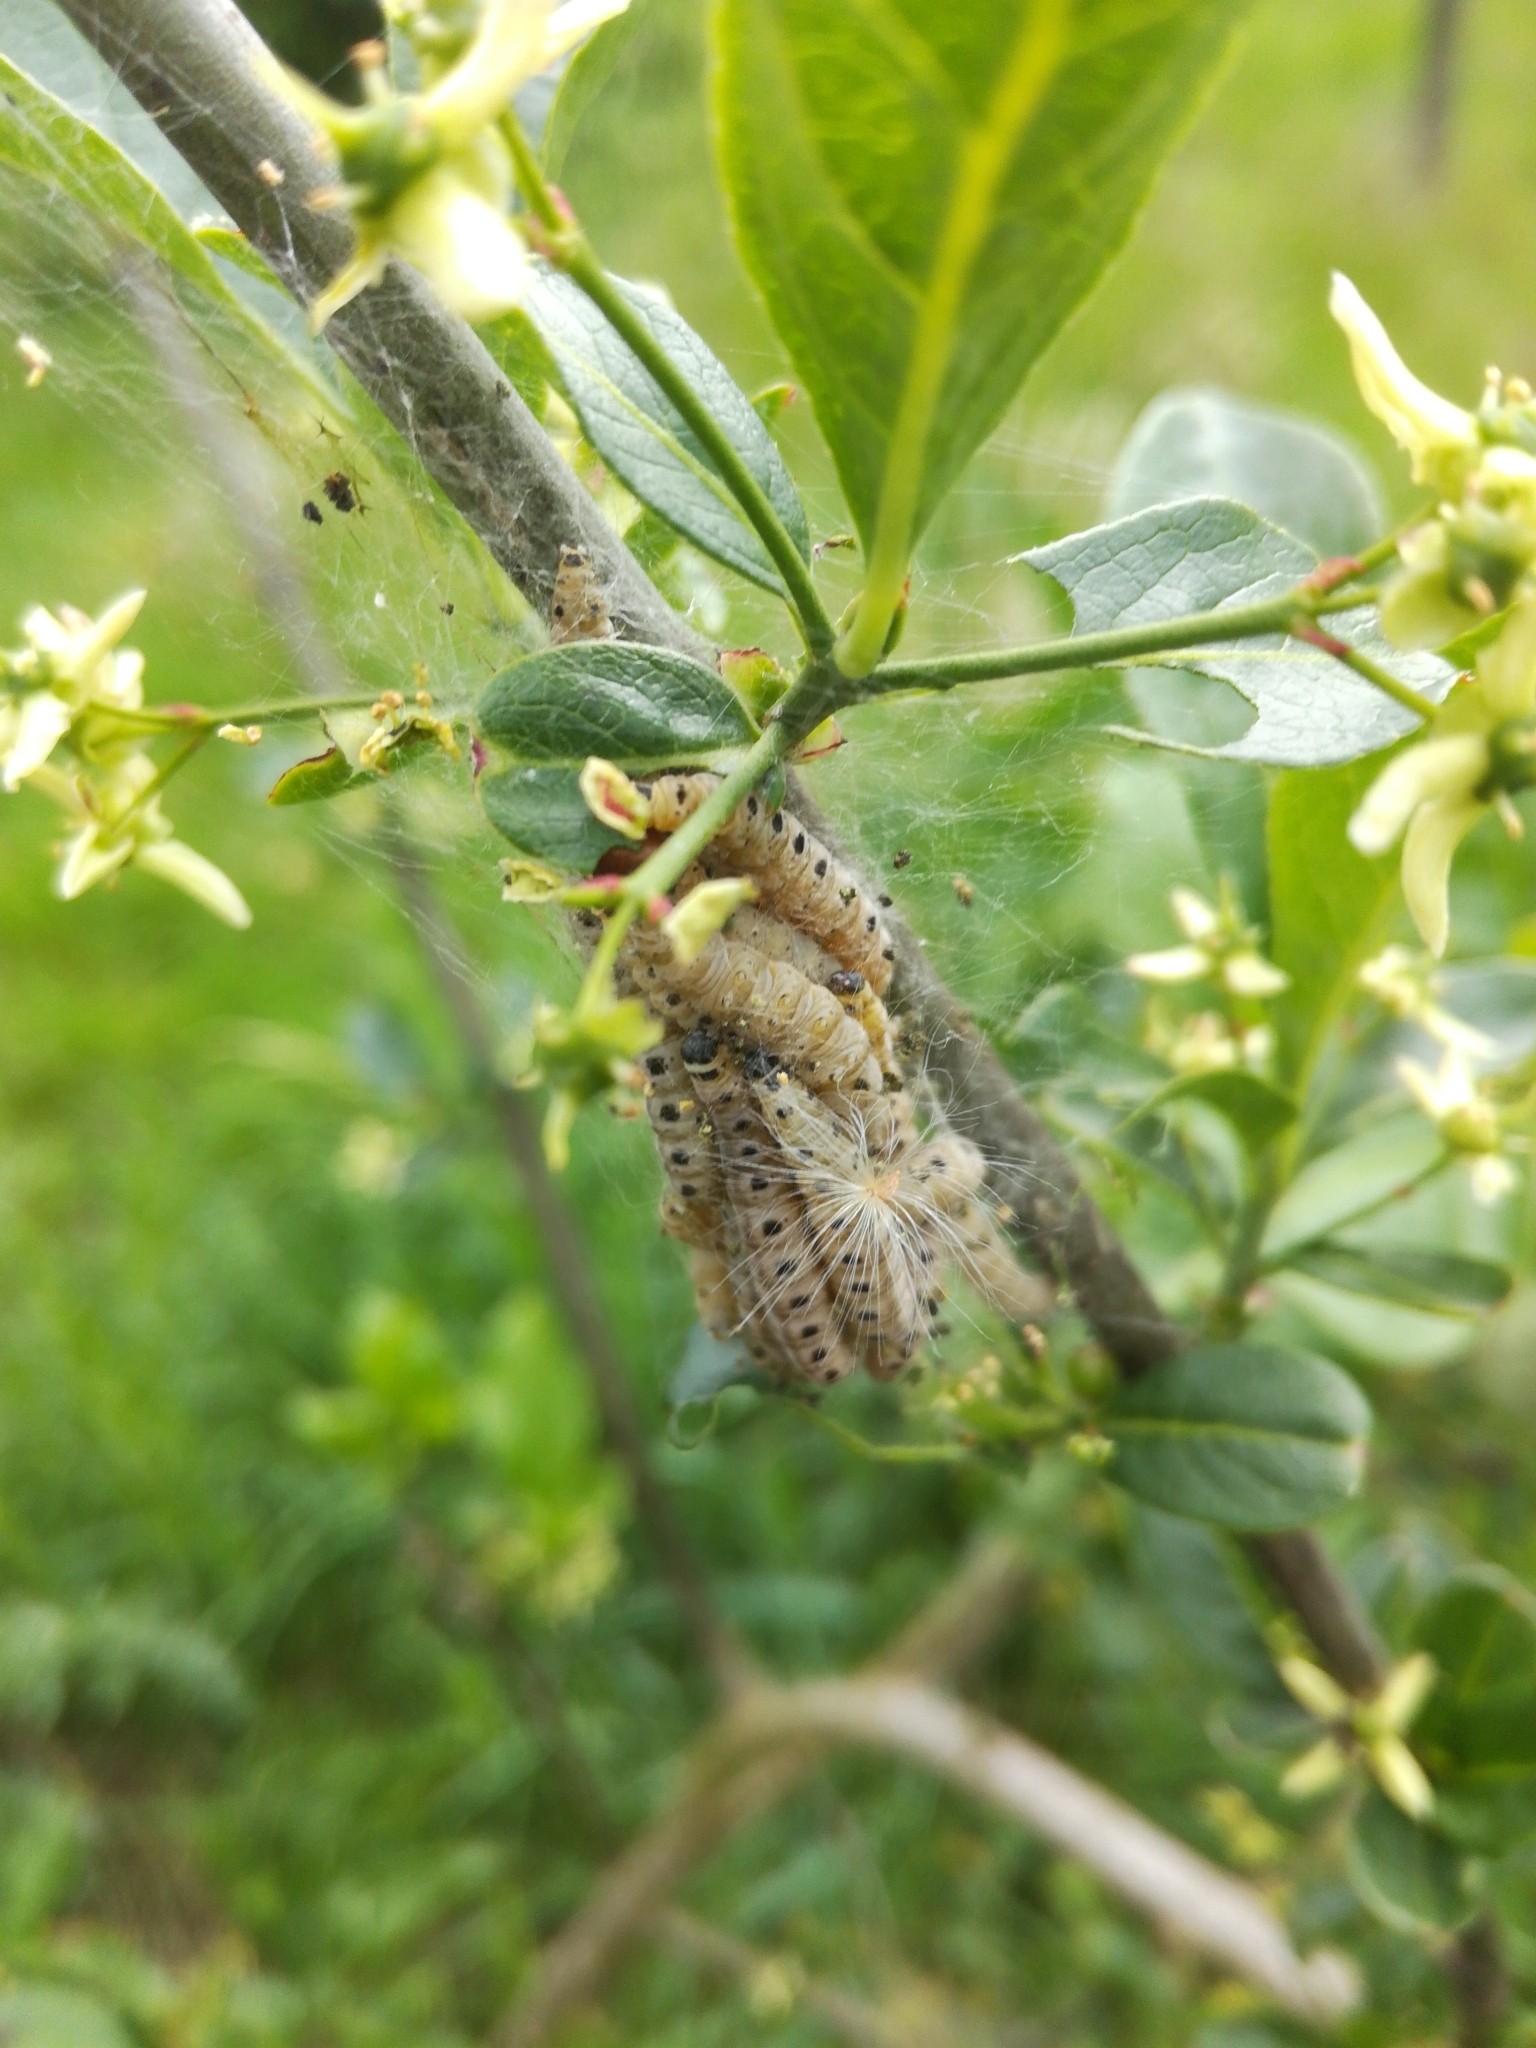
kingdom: Animalia
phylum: Arthropoda
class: Insecta
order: Lepidoptera
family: Yponomeutidae
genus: Yponomeuta
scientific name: Yponomeuta cagnagellus
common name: Spindle ermine
